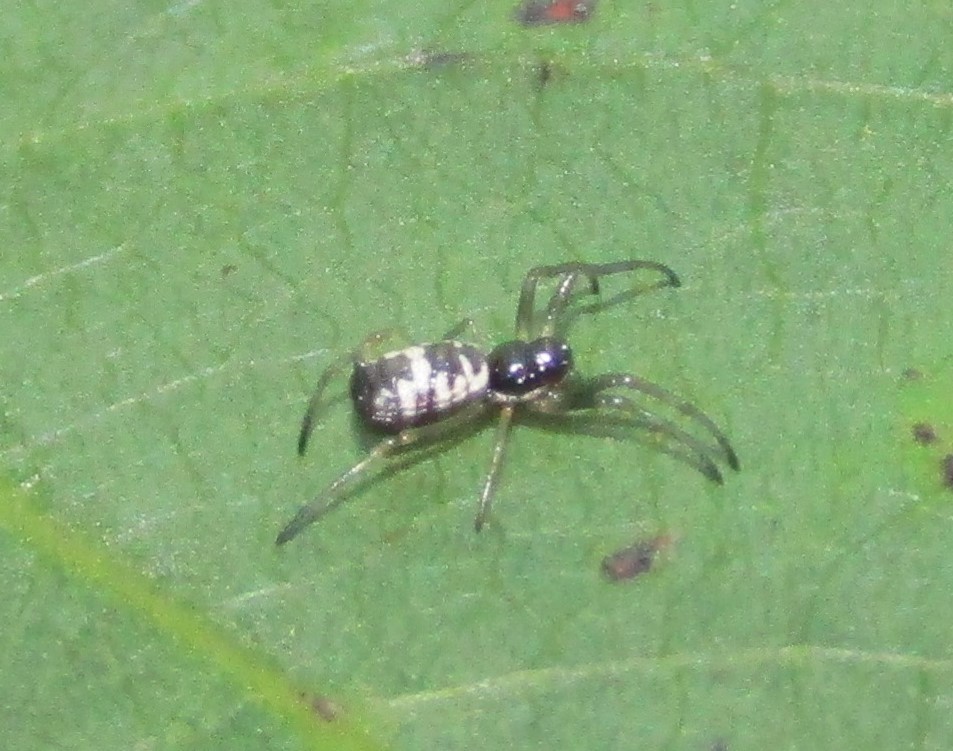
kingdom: Animalia
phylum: Arthropoda
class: Arachnida
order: Araneae
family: Araneidae
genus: Micrathena
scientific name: Micrathena mitrata
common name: Orb weavers
